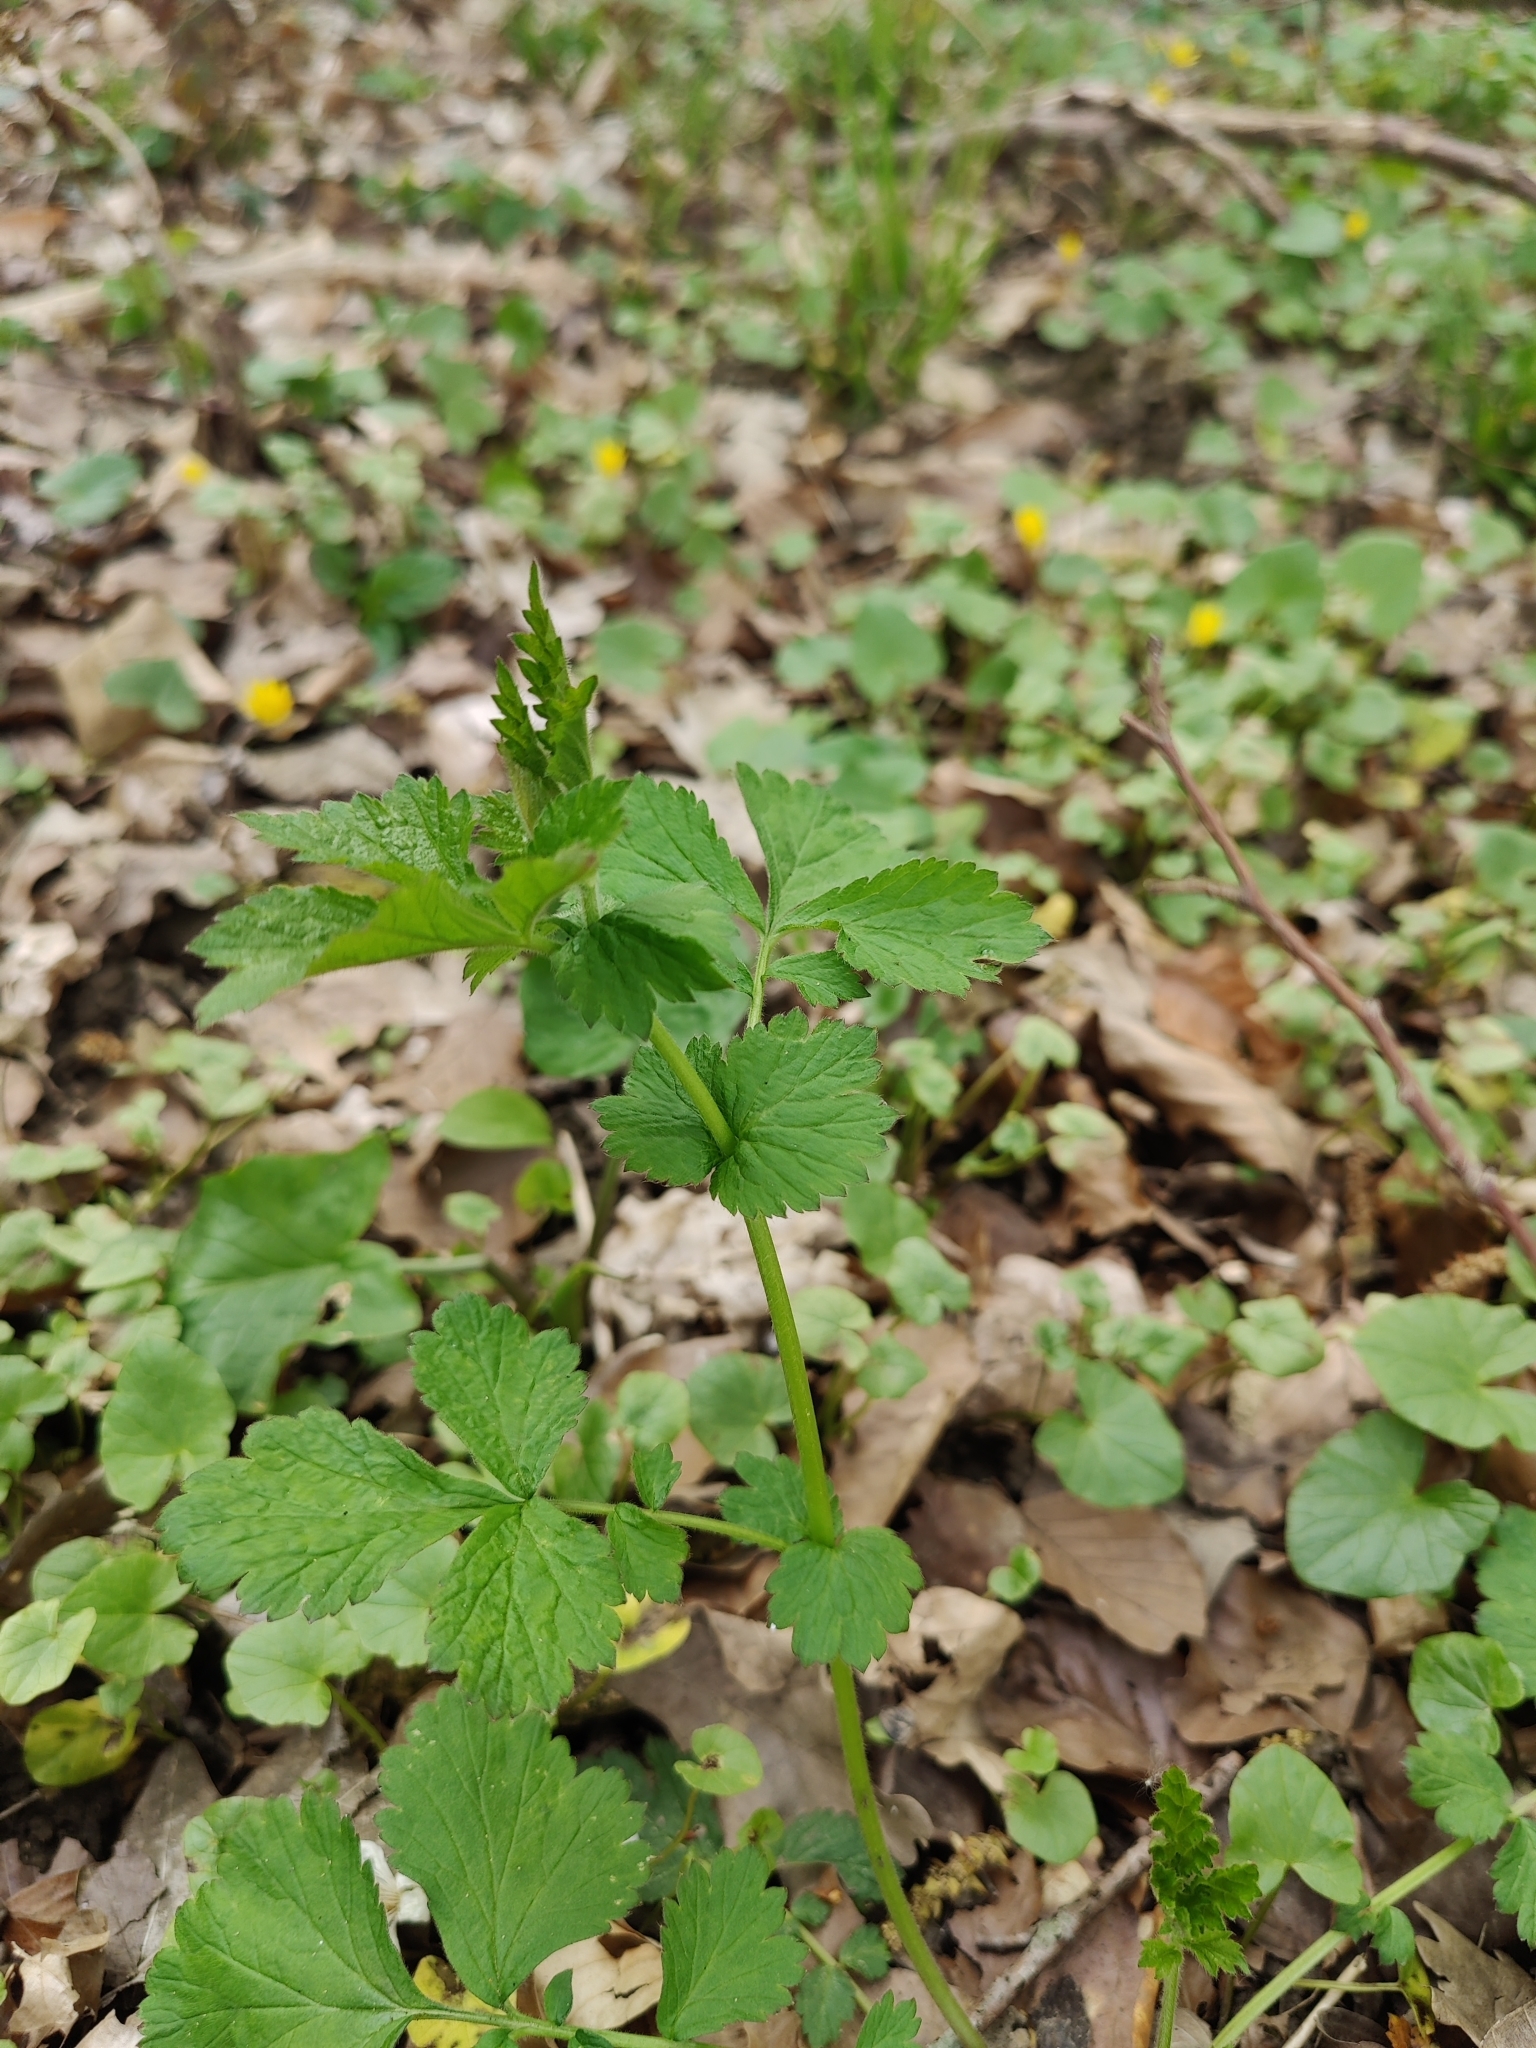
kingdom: Plantae
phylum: Tracheophyta
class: Magnoliopsida
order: Rosales
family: Rosaceae
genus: Geum
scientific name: Geum urbanum
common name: Wood avens
